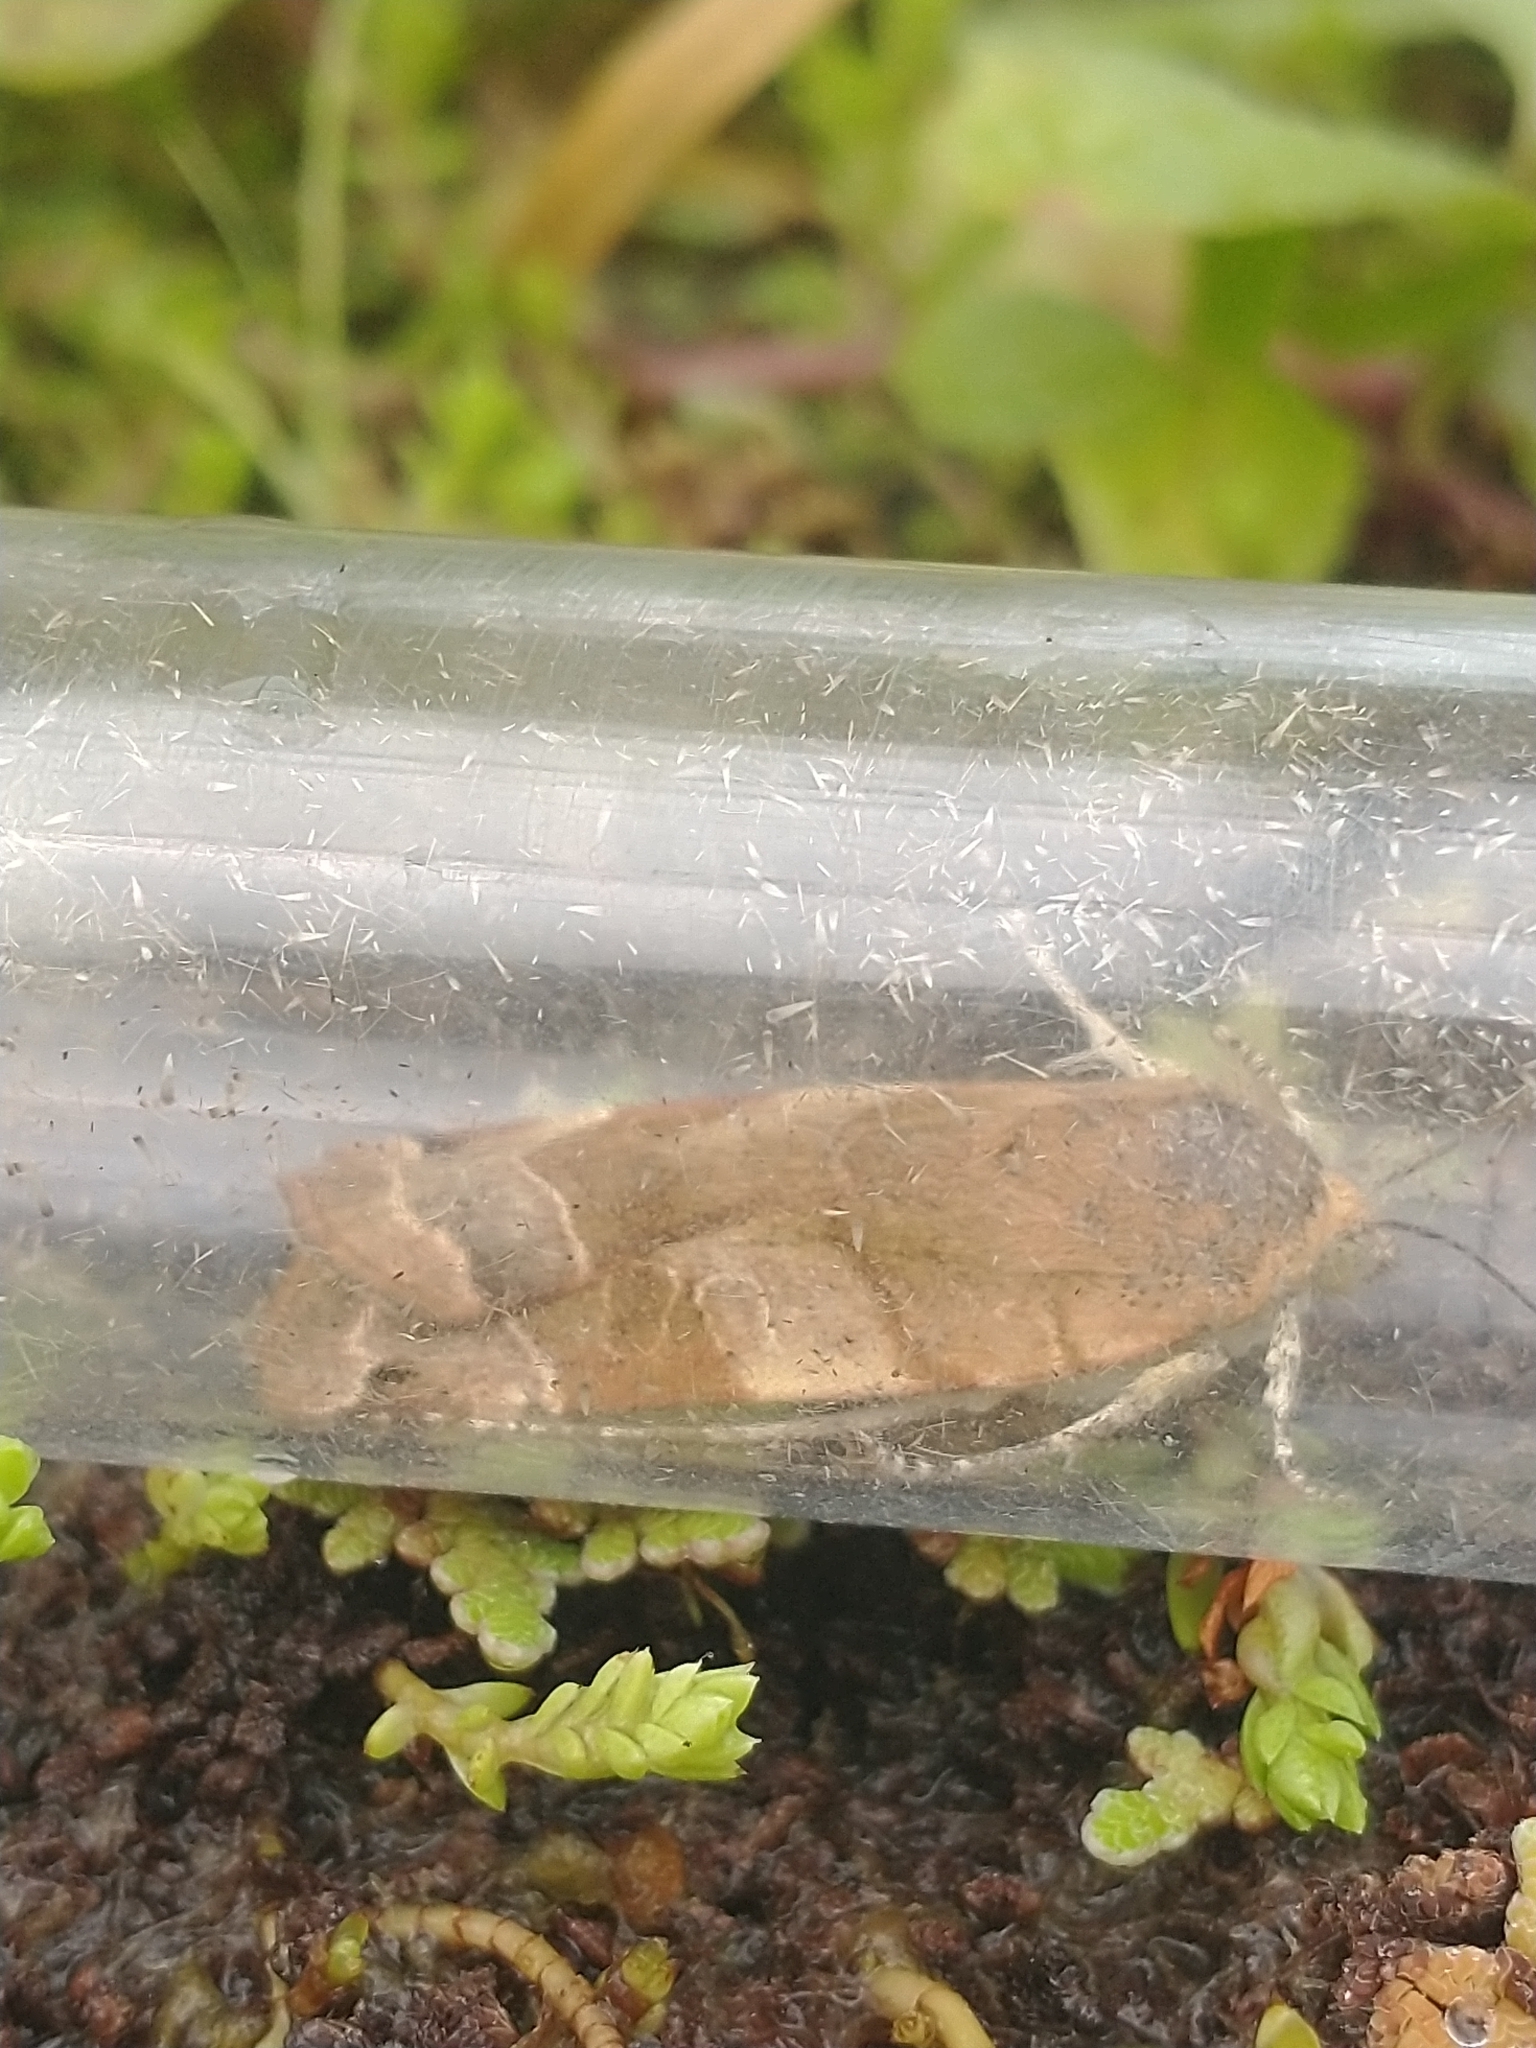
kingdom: Animalia
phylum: Arthropoda
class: Insecta
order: Lepidoptera
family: Noctuidae
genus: Noctua
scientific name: Noctua fimbriata
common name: Broad-bordered yellow underwing
